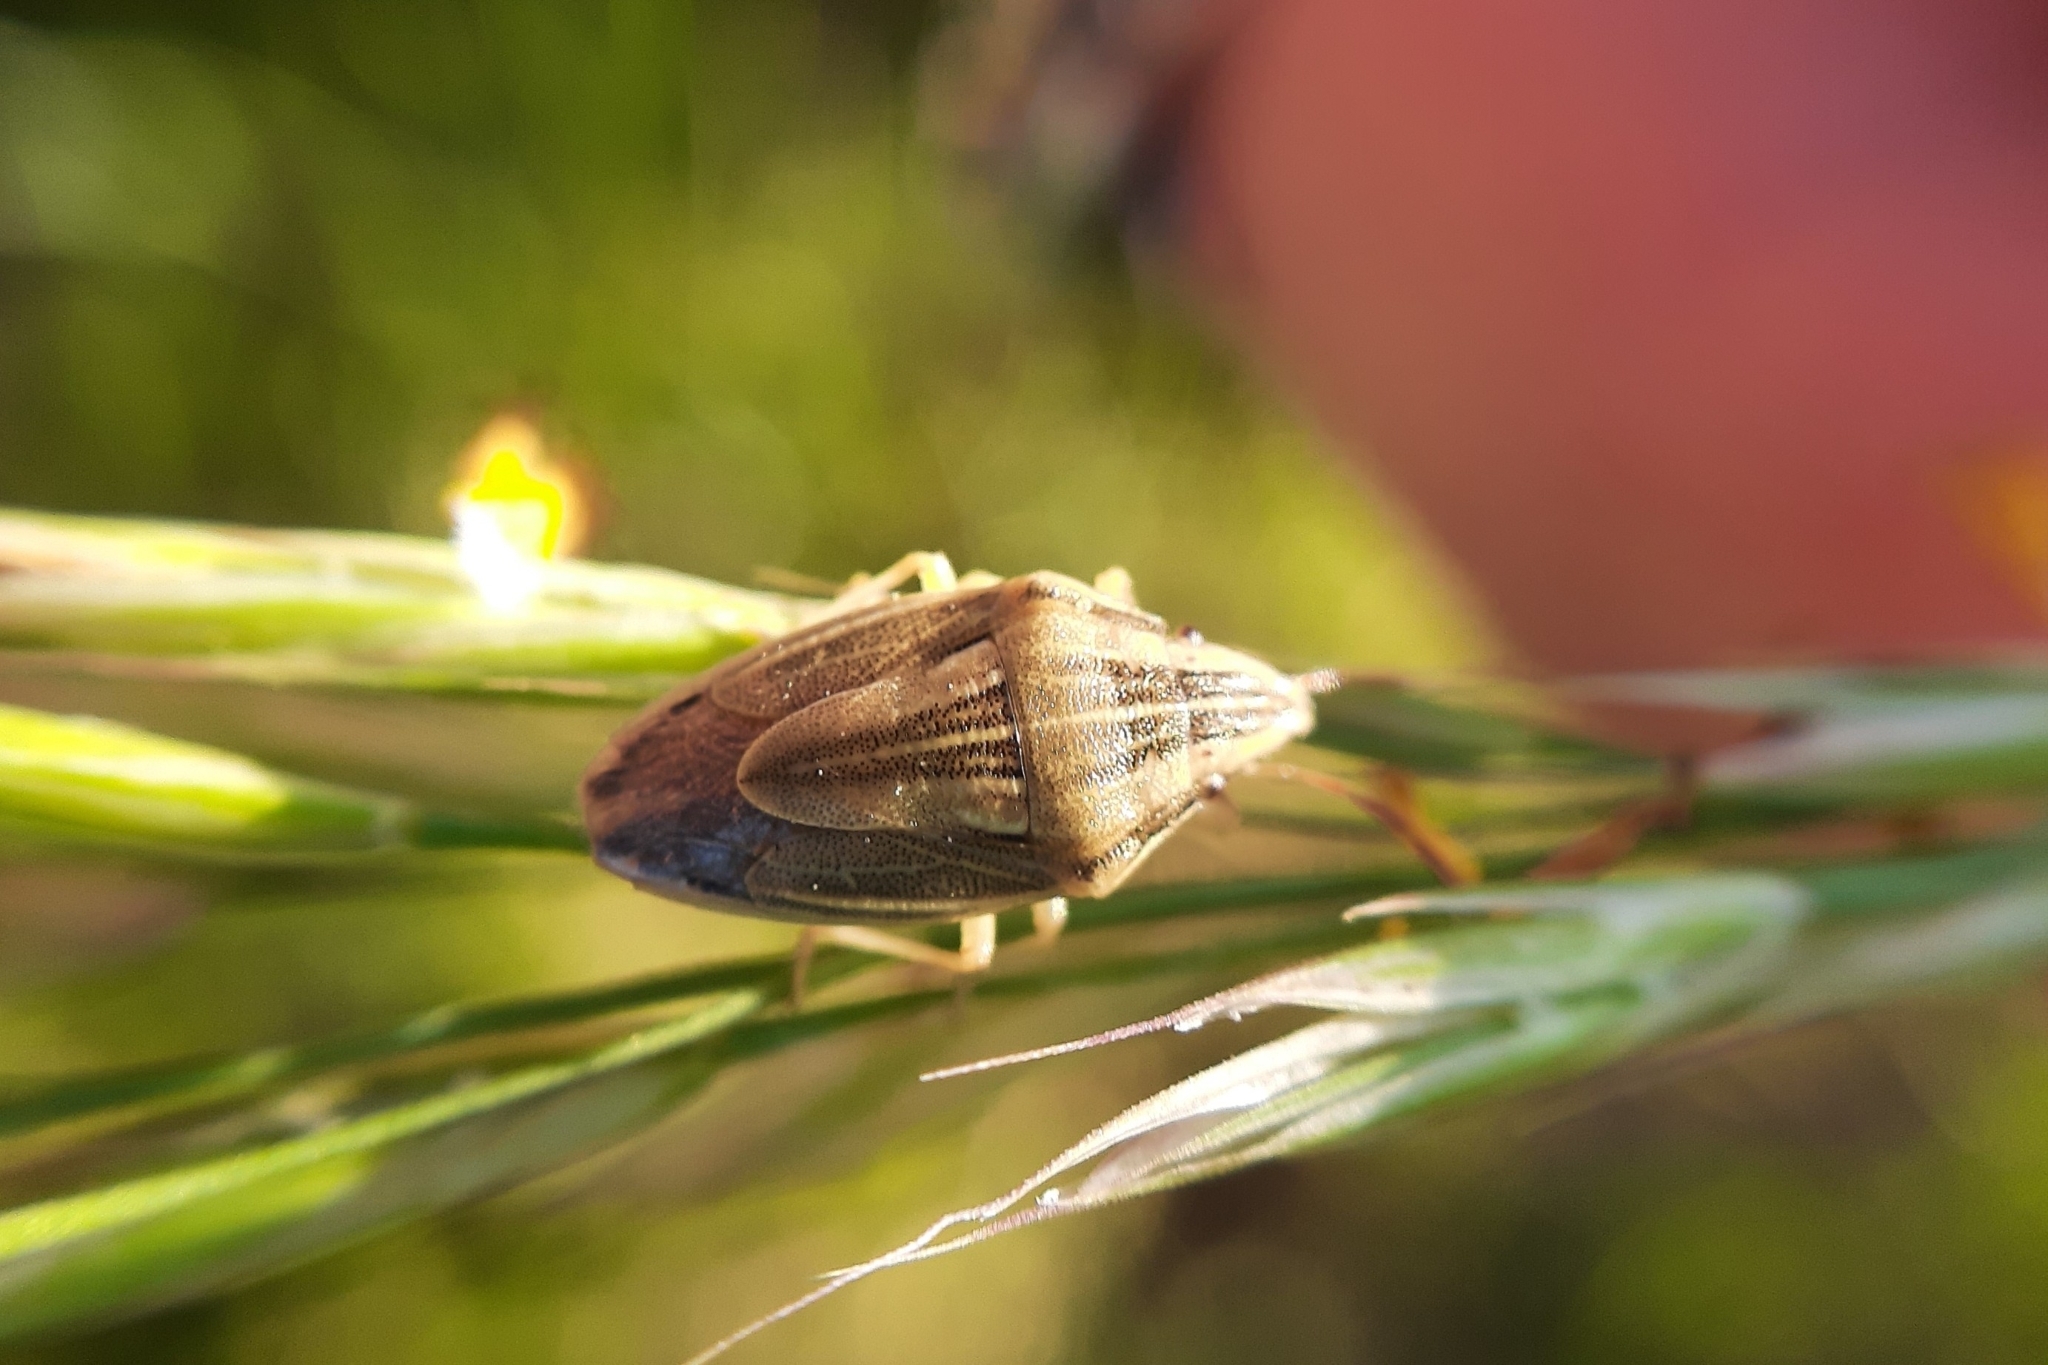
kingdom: Animalia
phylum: Arthropoda
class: Insecta
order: Hemiptera
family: Pentatomidae
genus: Aelia
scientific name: Aelia acuminata
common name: Bishop's mitre
